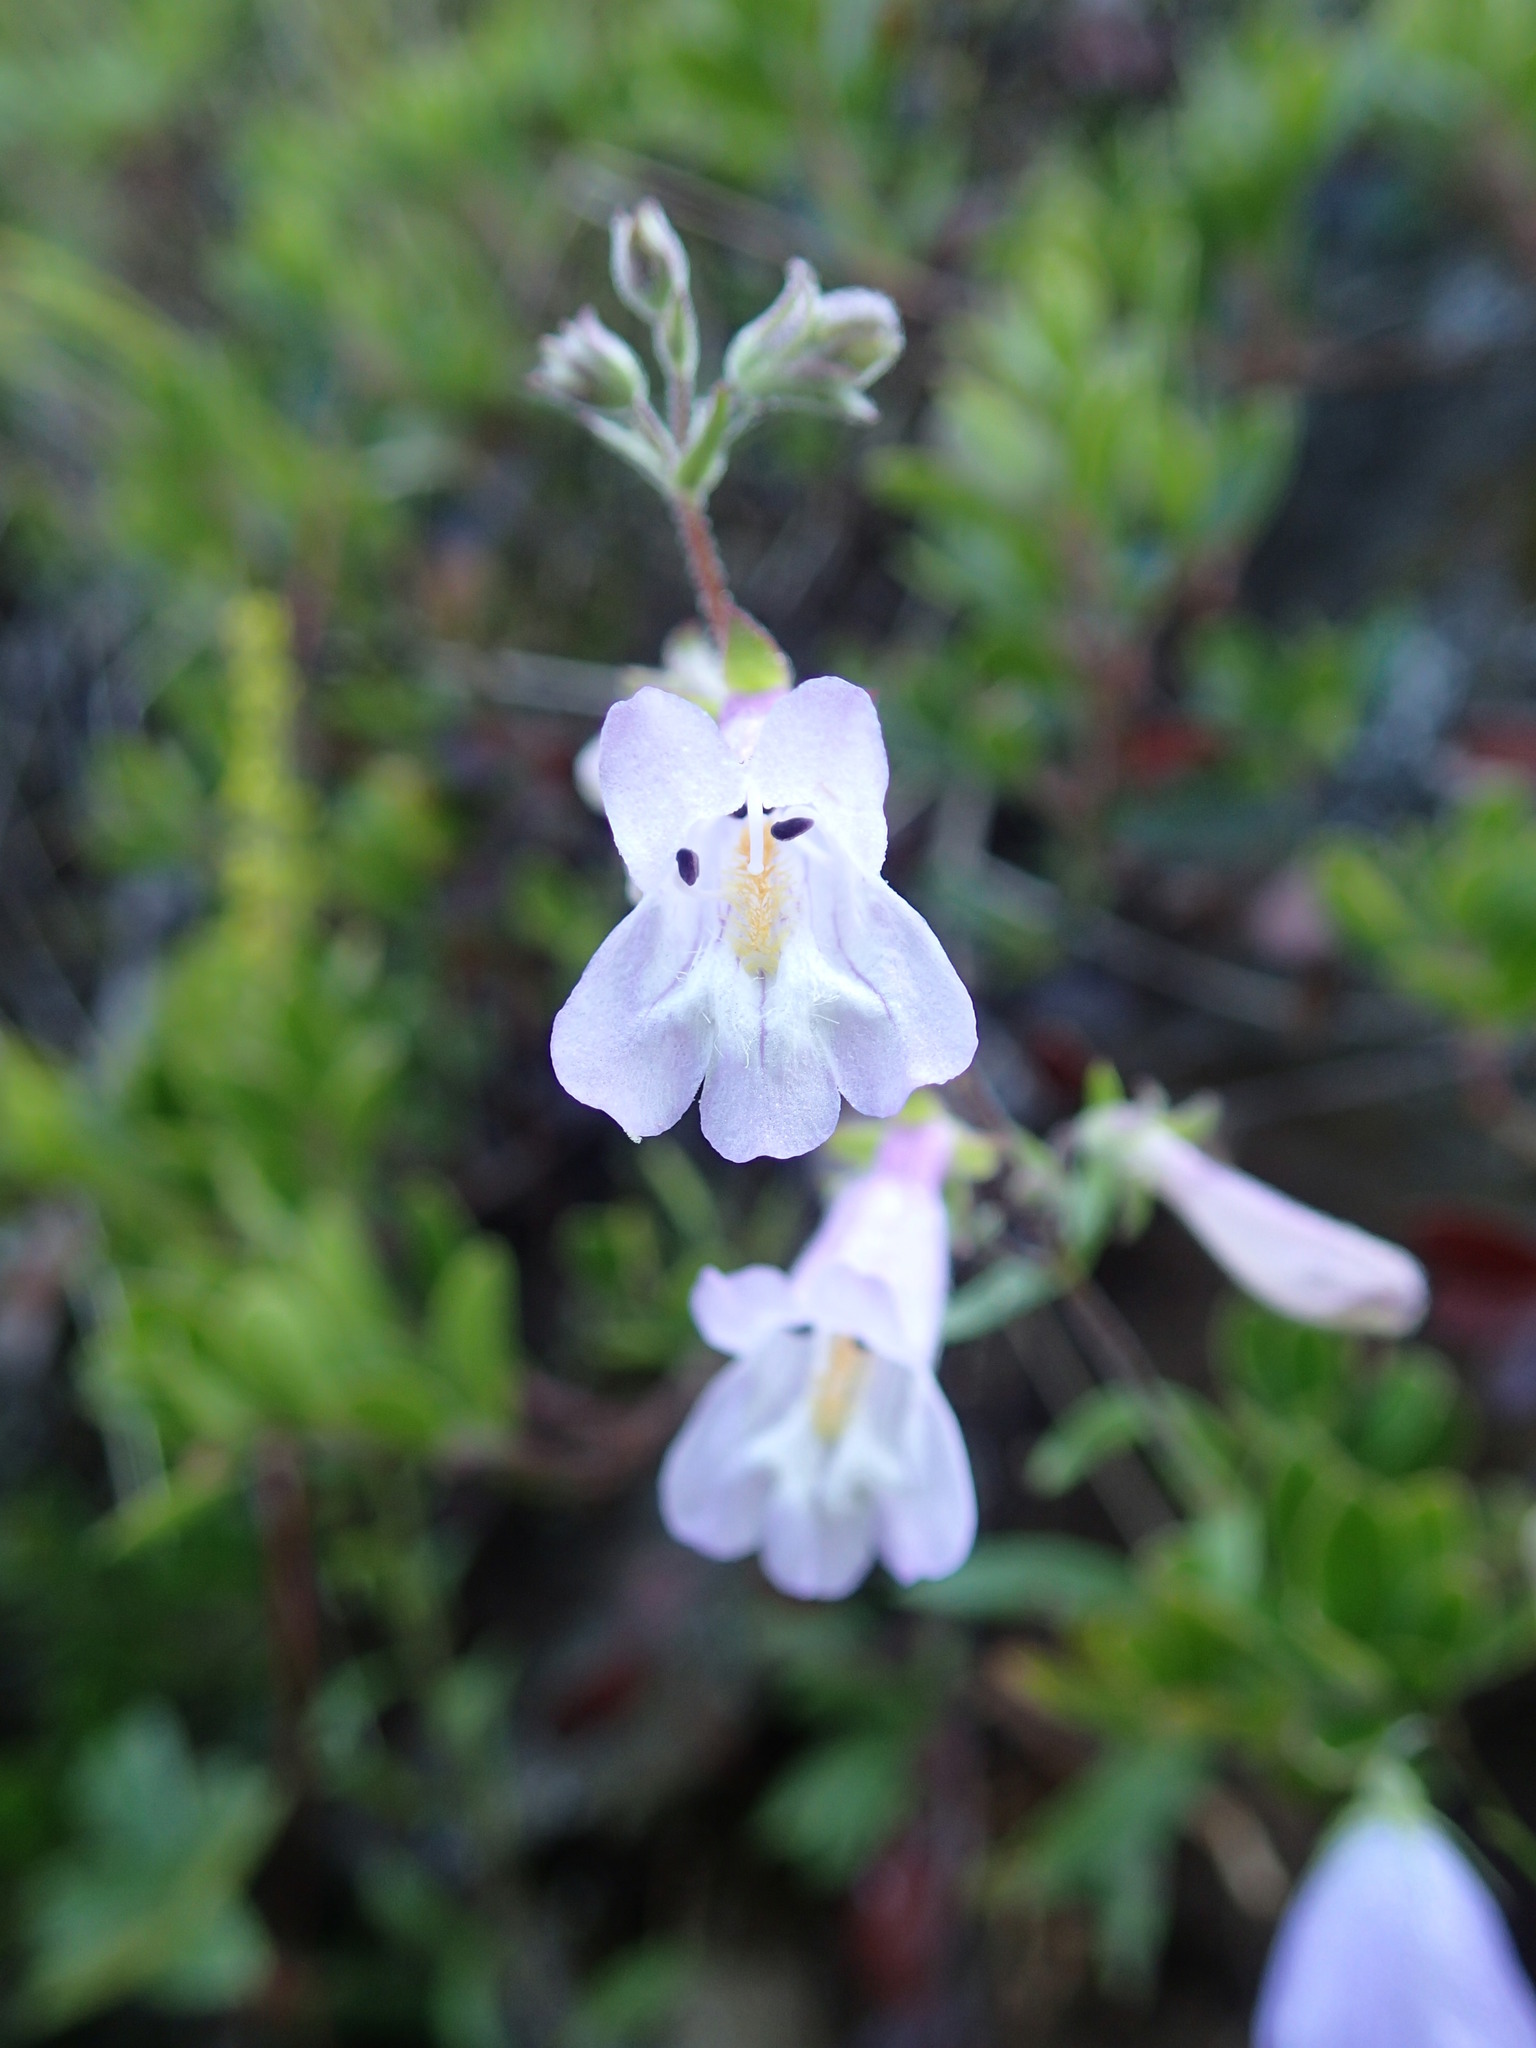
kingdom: Plantae
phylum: Tracheophyta
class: Magnoliopsida
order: Lamiales
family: Plantaginaceae
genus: Penstemon
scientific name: Penstemon gracilis
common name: Slender beardtongue
